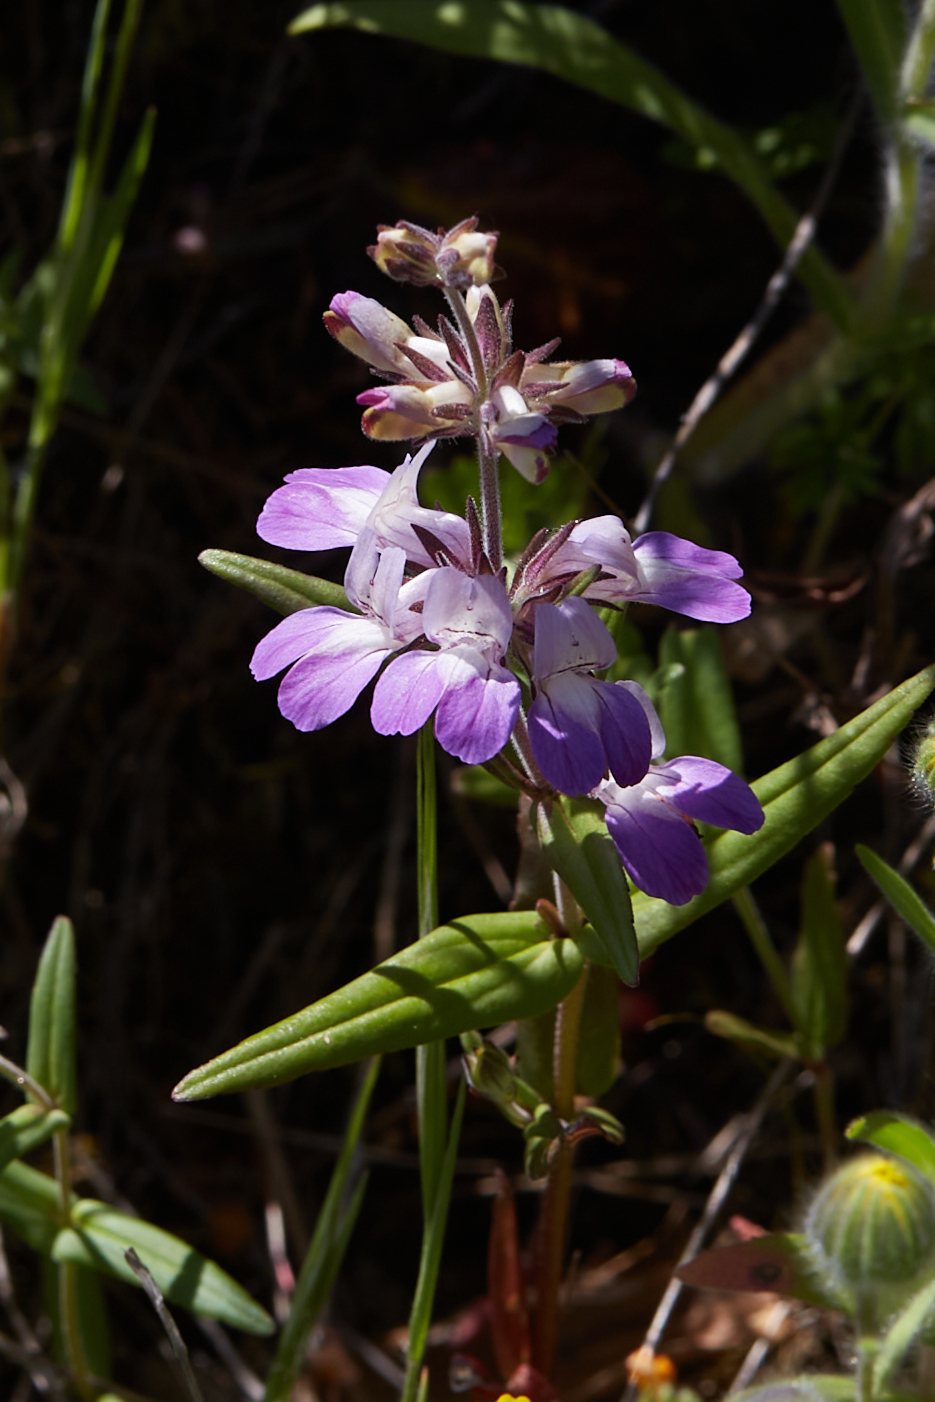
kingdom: Plantae
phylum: Tracheophyta
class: Magnoliopsida
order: Lamiales
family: Plantaginaceae
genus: Collinsia
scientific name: Collinsia heterophylla
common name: Chinese-houses
